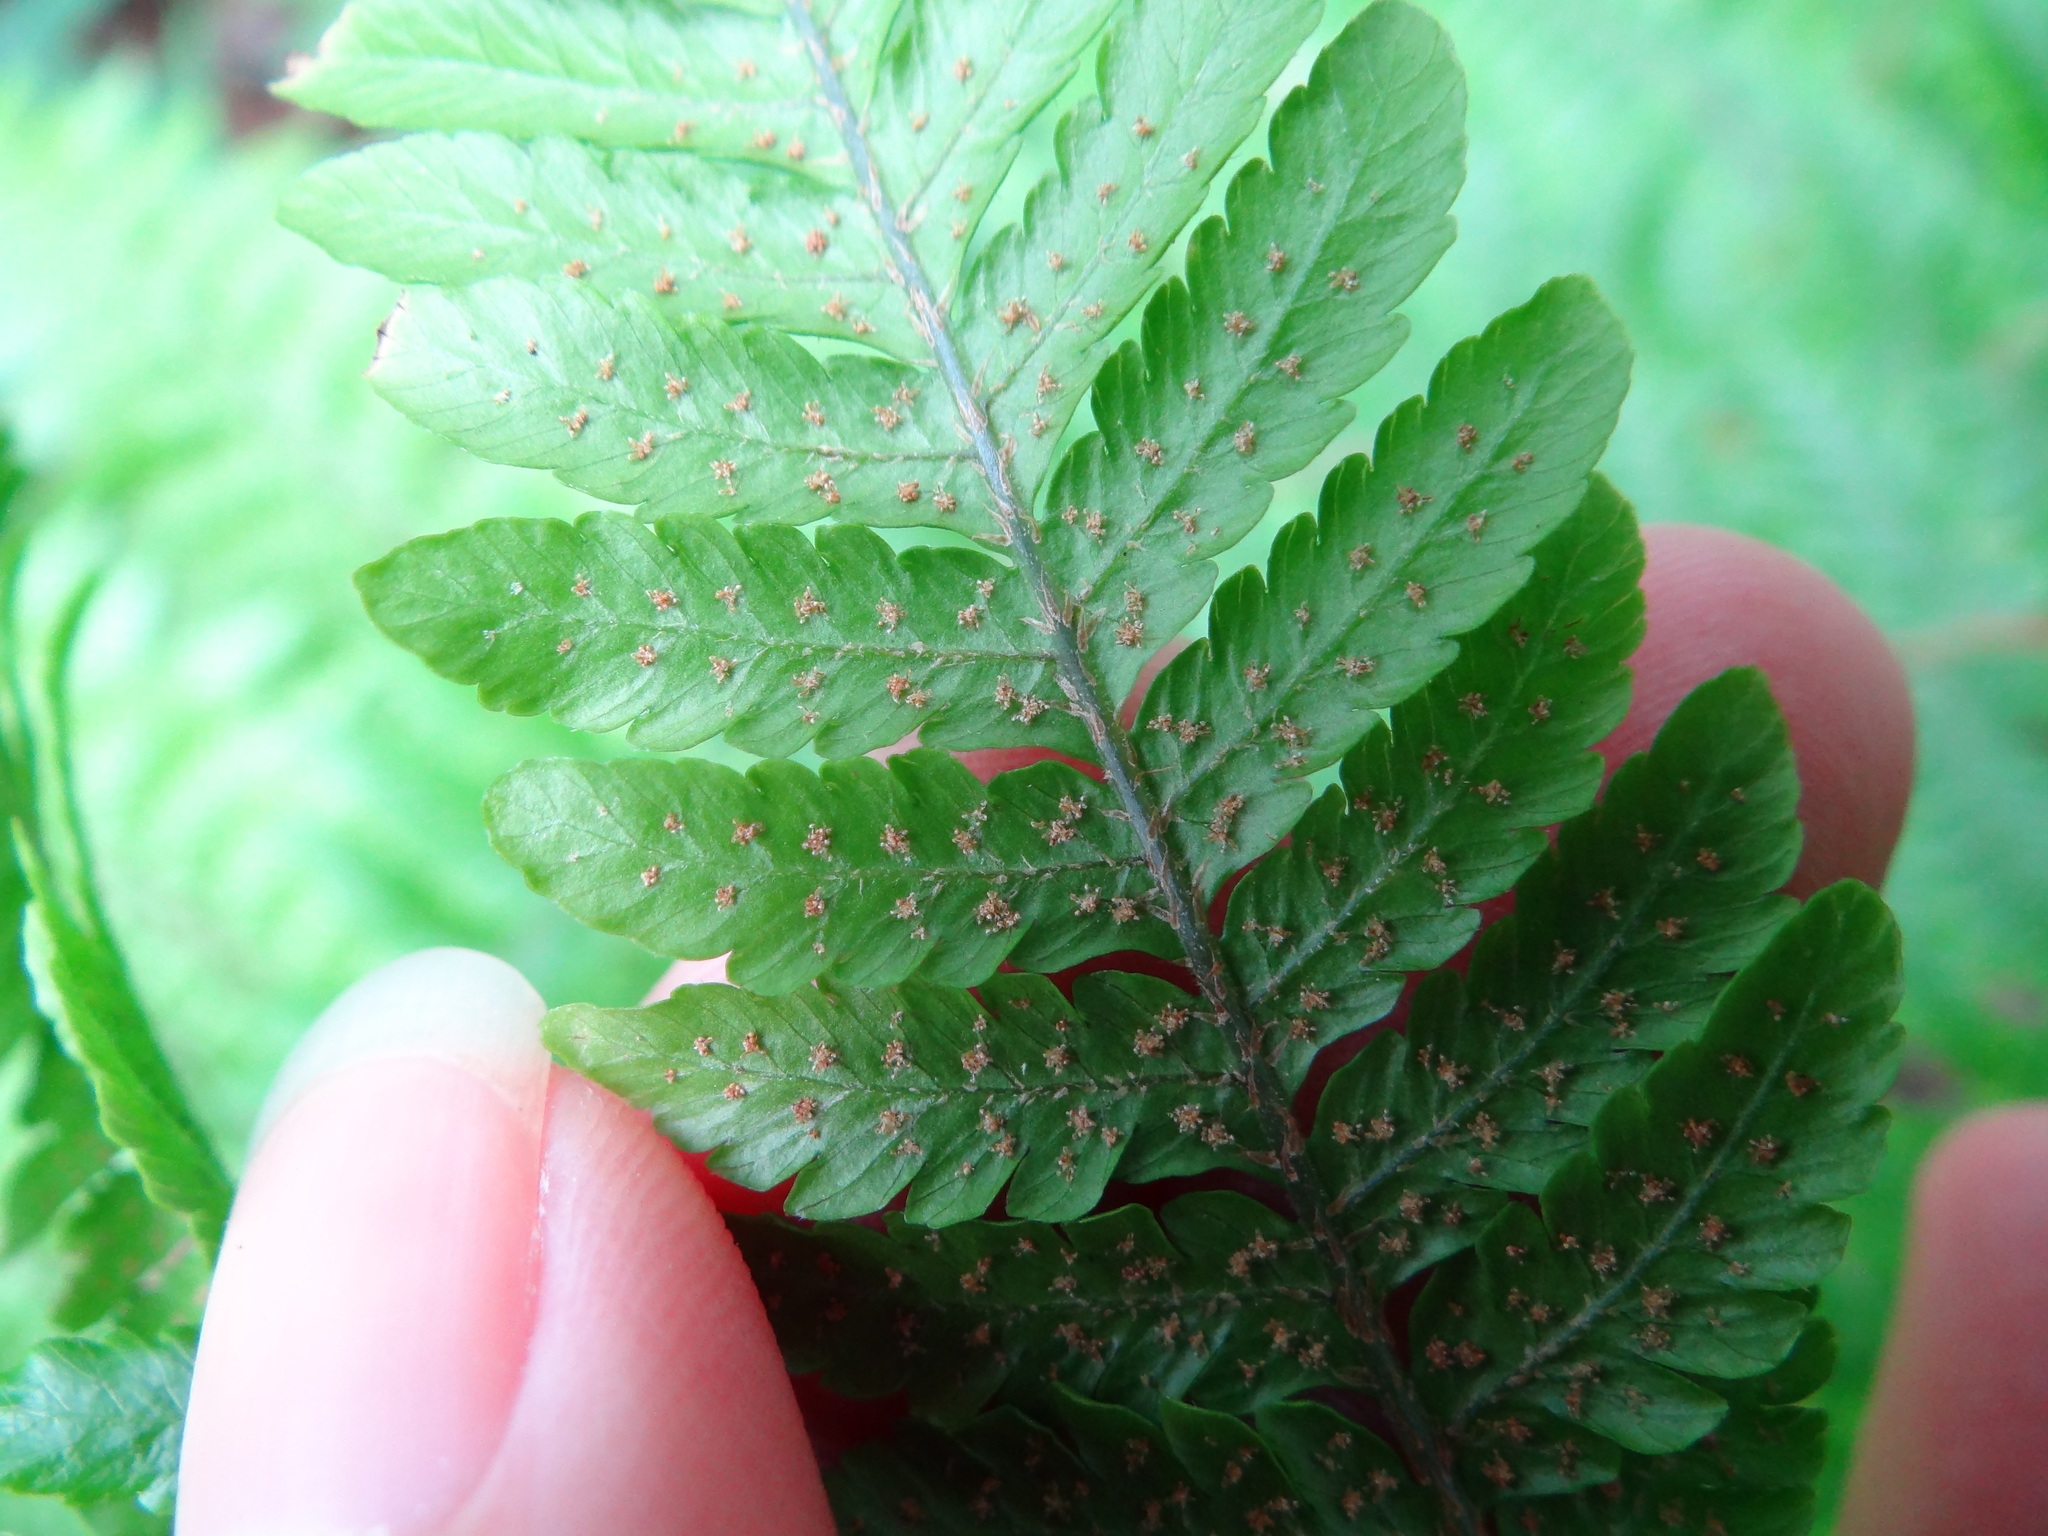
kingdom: Plantae
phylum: Tracheophyta
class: Polypodiopsida
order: Polypodiales
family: Dryopteridaceae
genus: Ctenitis
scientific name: Ctenitis subglandulosa
